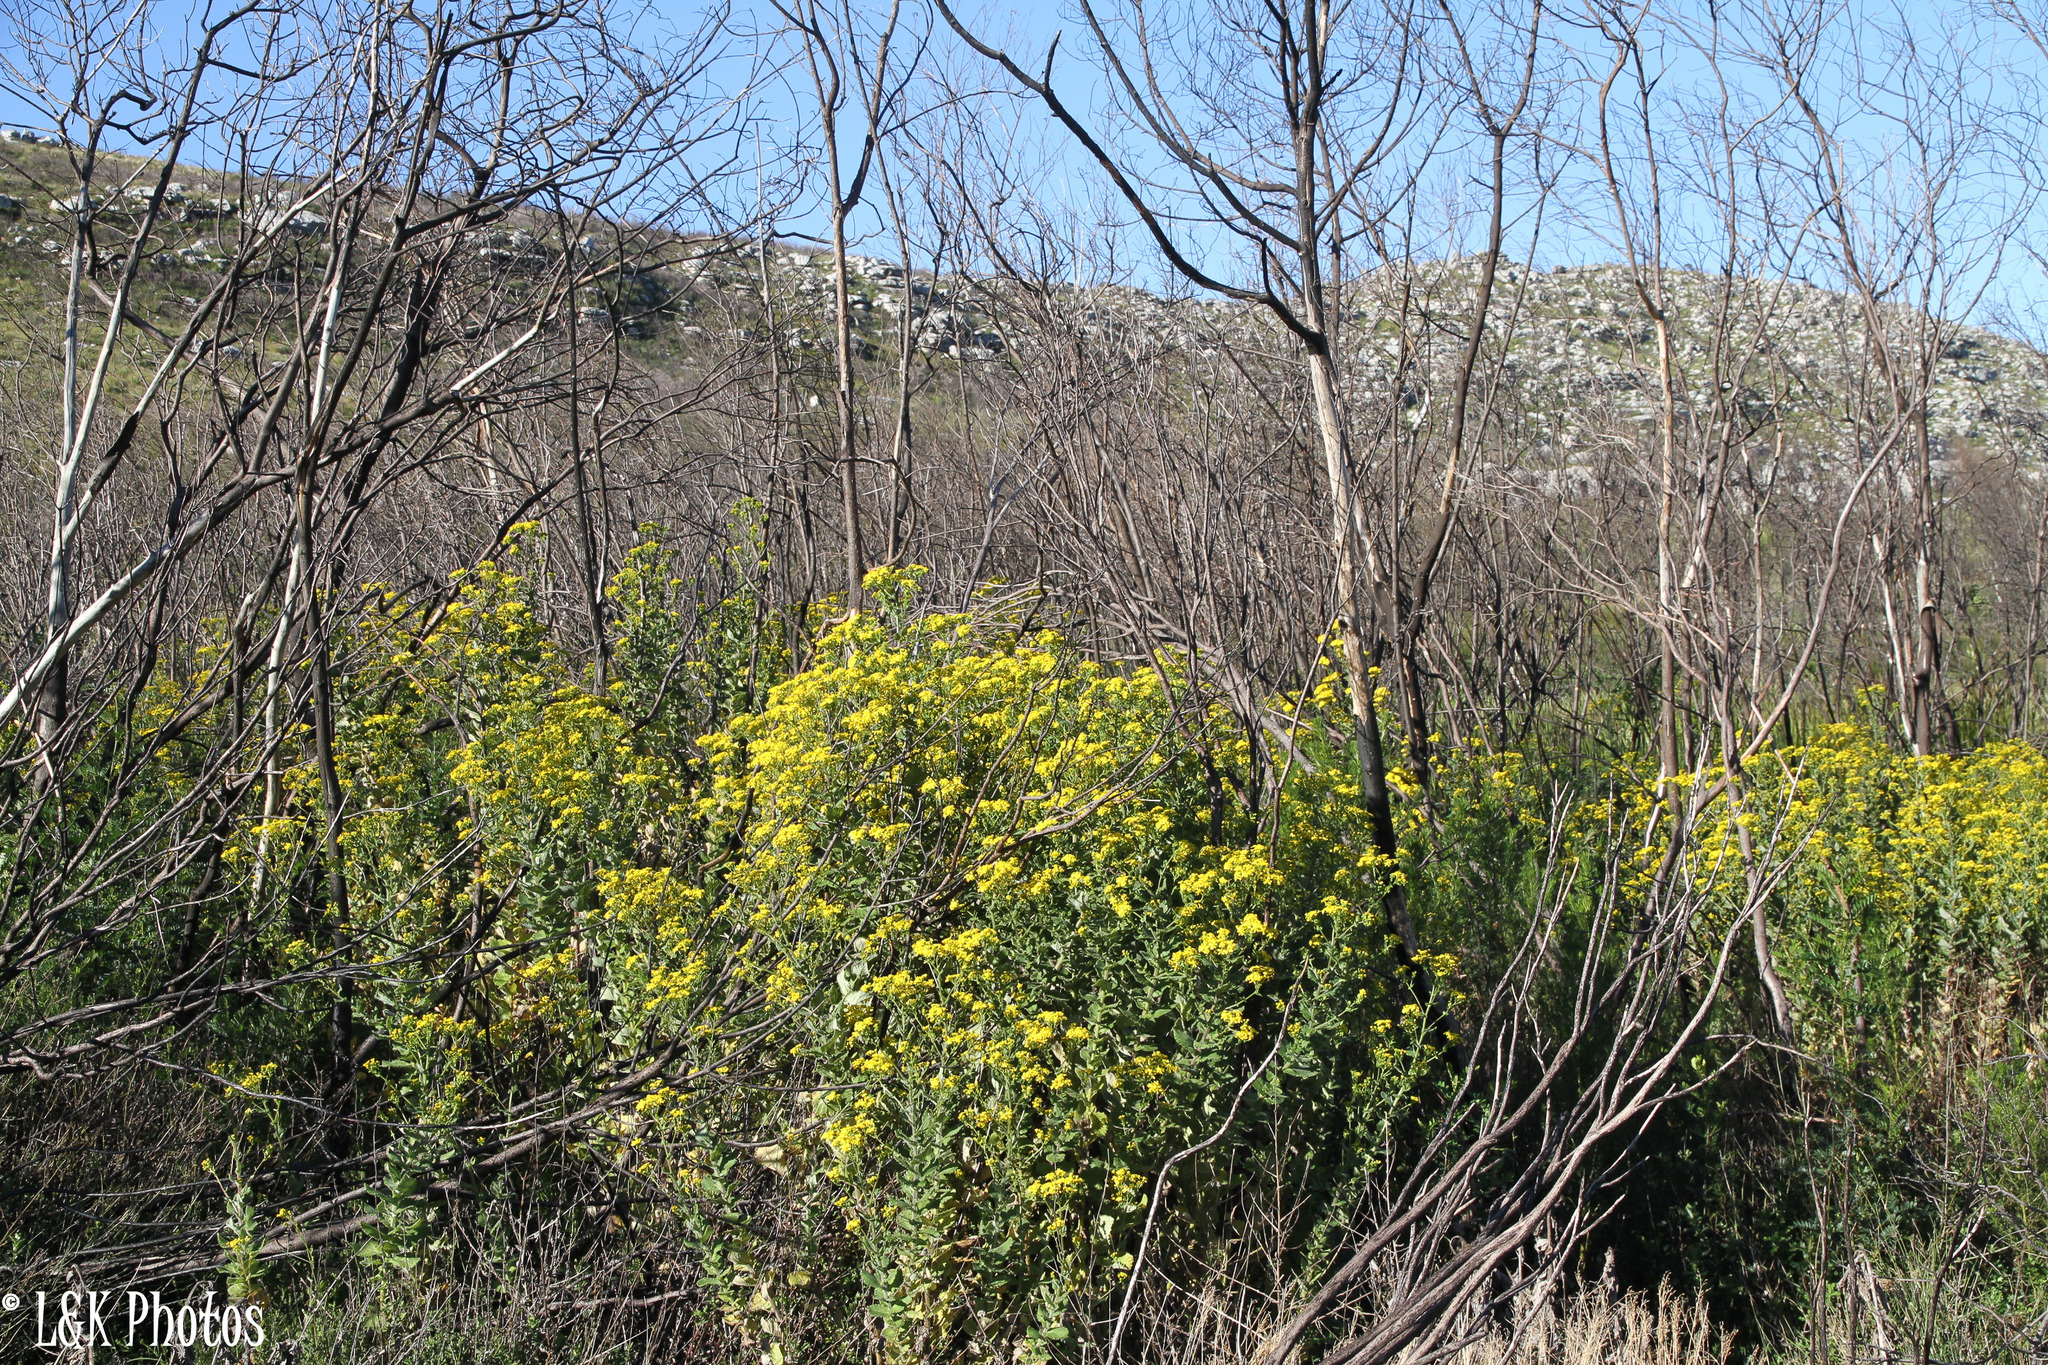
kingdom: Plantae
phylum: Tracheophyta
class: Magnoliopsida
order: Asterales
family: Asteraceae
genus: Senecio
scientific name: Senecio rigidus
